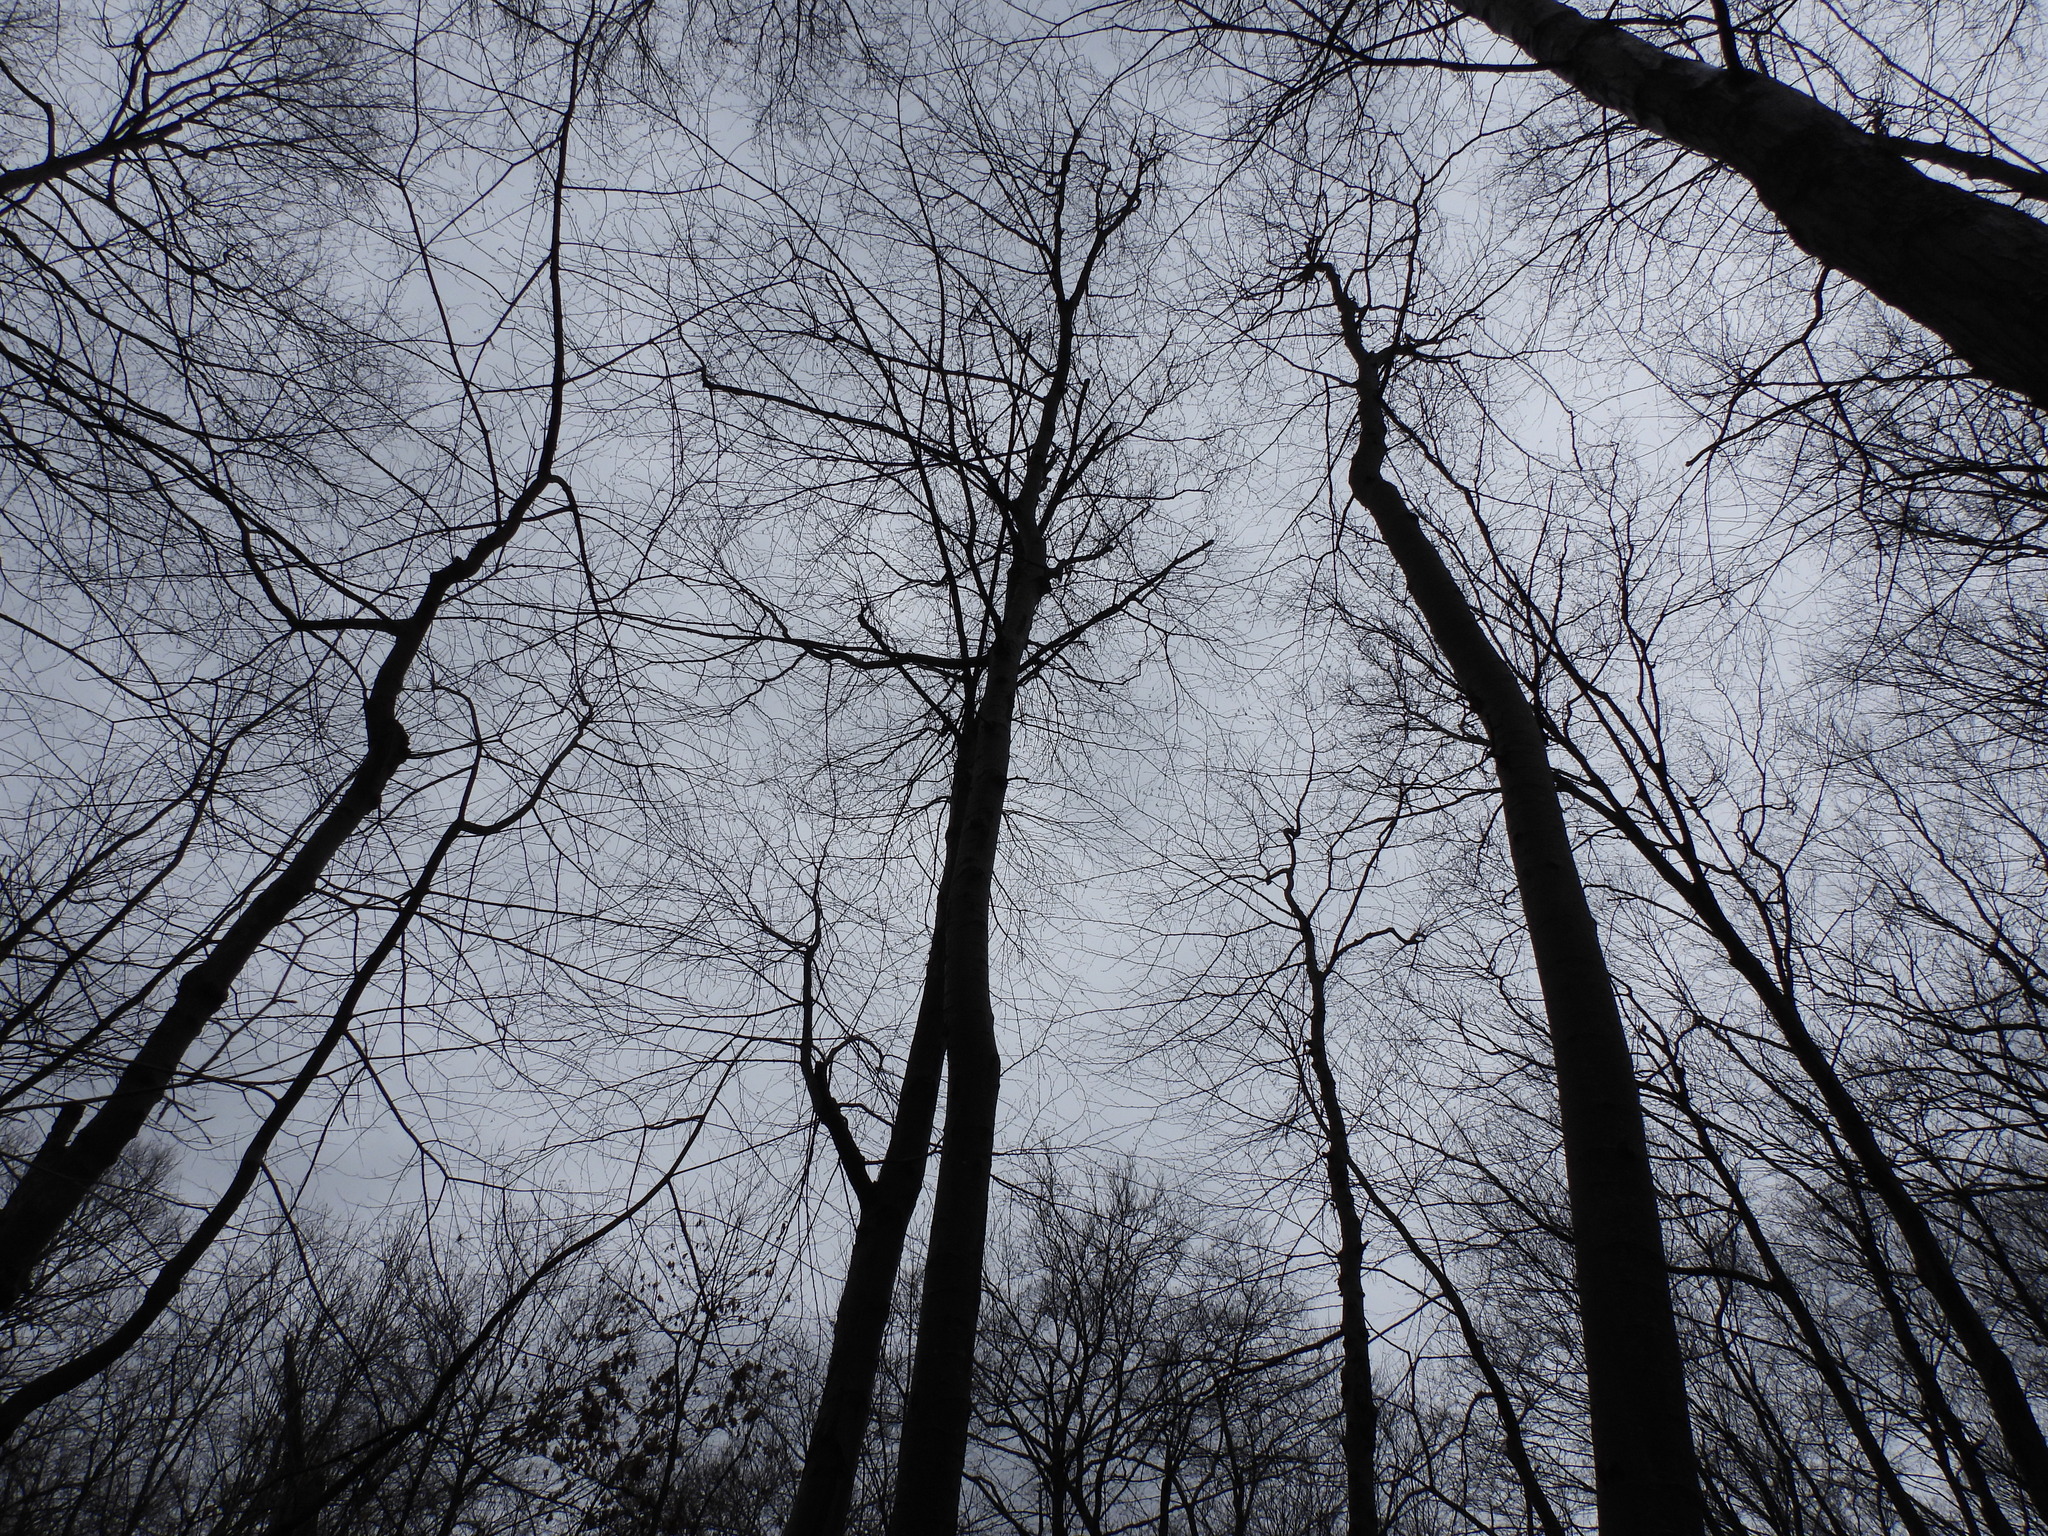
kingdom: Plantae
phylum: Tracheophyta
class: Magnoliopsida
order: Fagales
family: Betulaceae
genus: Betula
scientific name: Betula lenta
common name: Black birch
